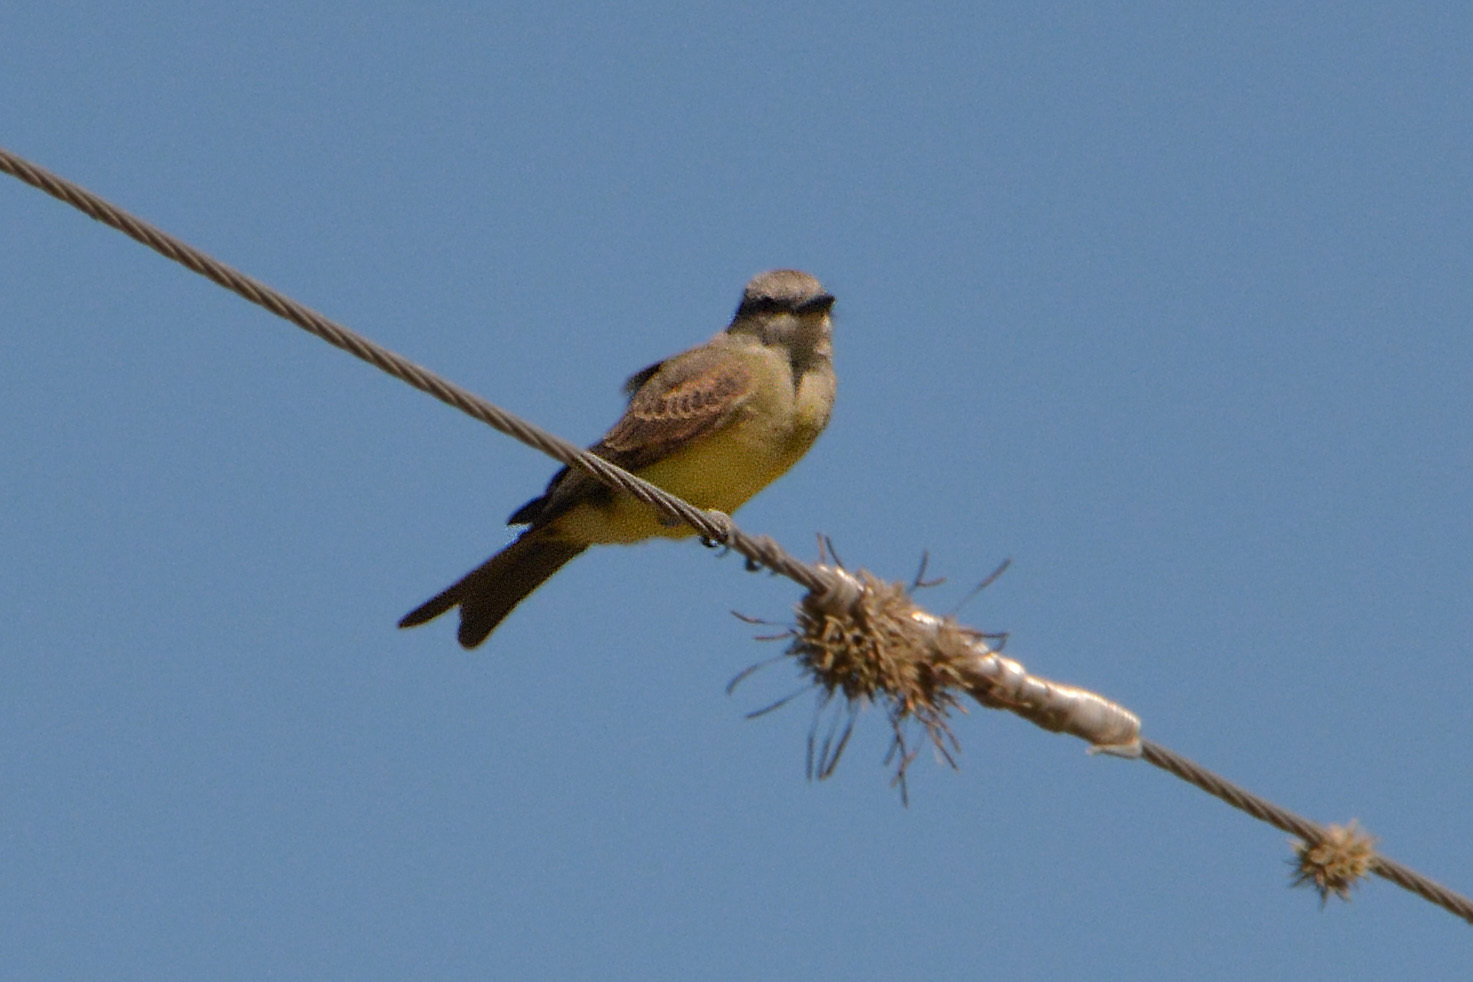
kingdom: Animalia
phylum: Chordata
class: Aves
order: Passeriformes
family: Tyrannidae
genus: Tyrannus
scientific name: Tyrannus melancholicus
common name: Tropical kingbird
